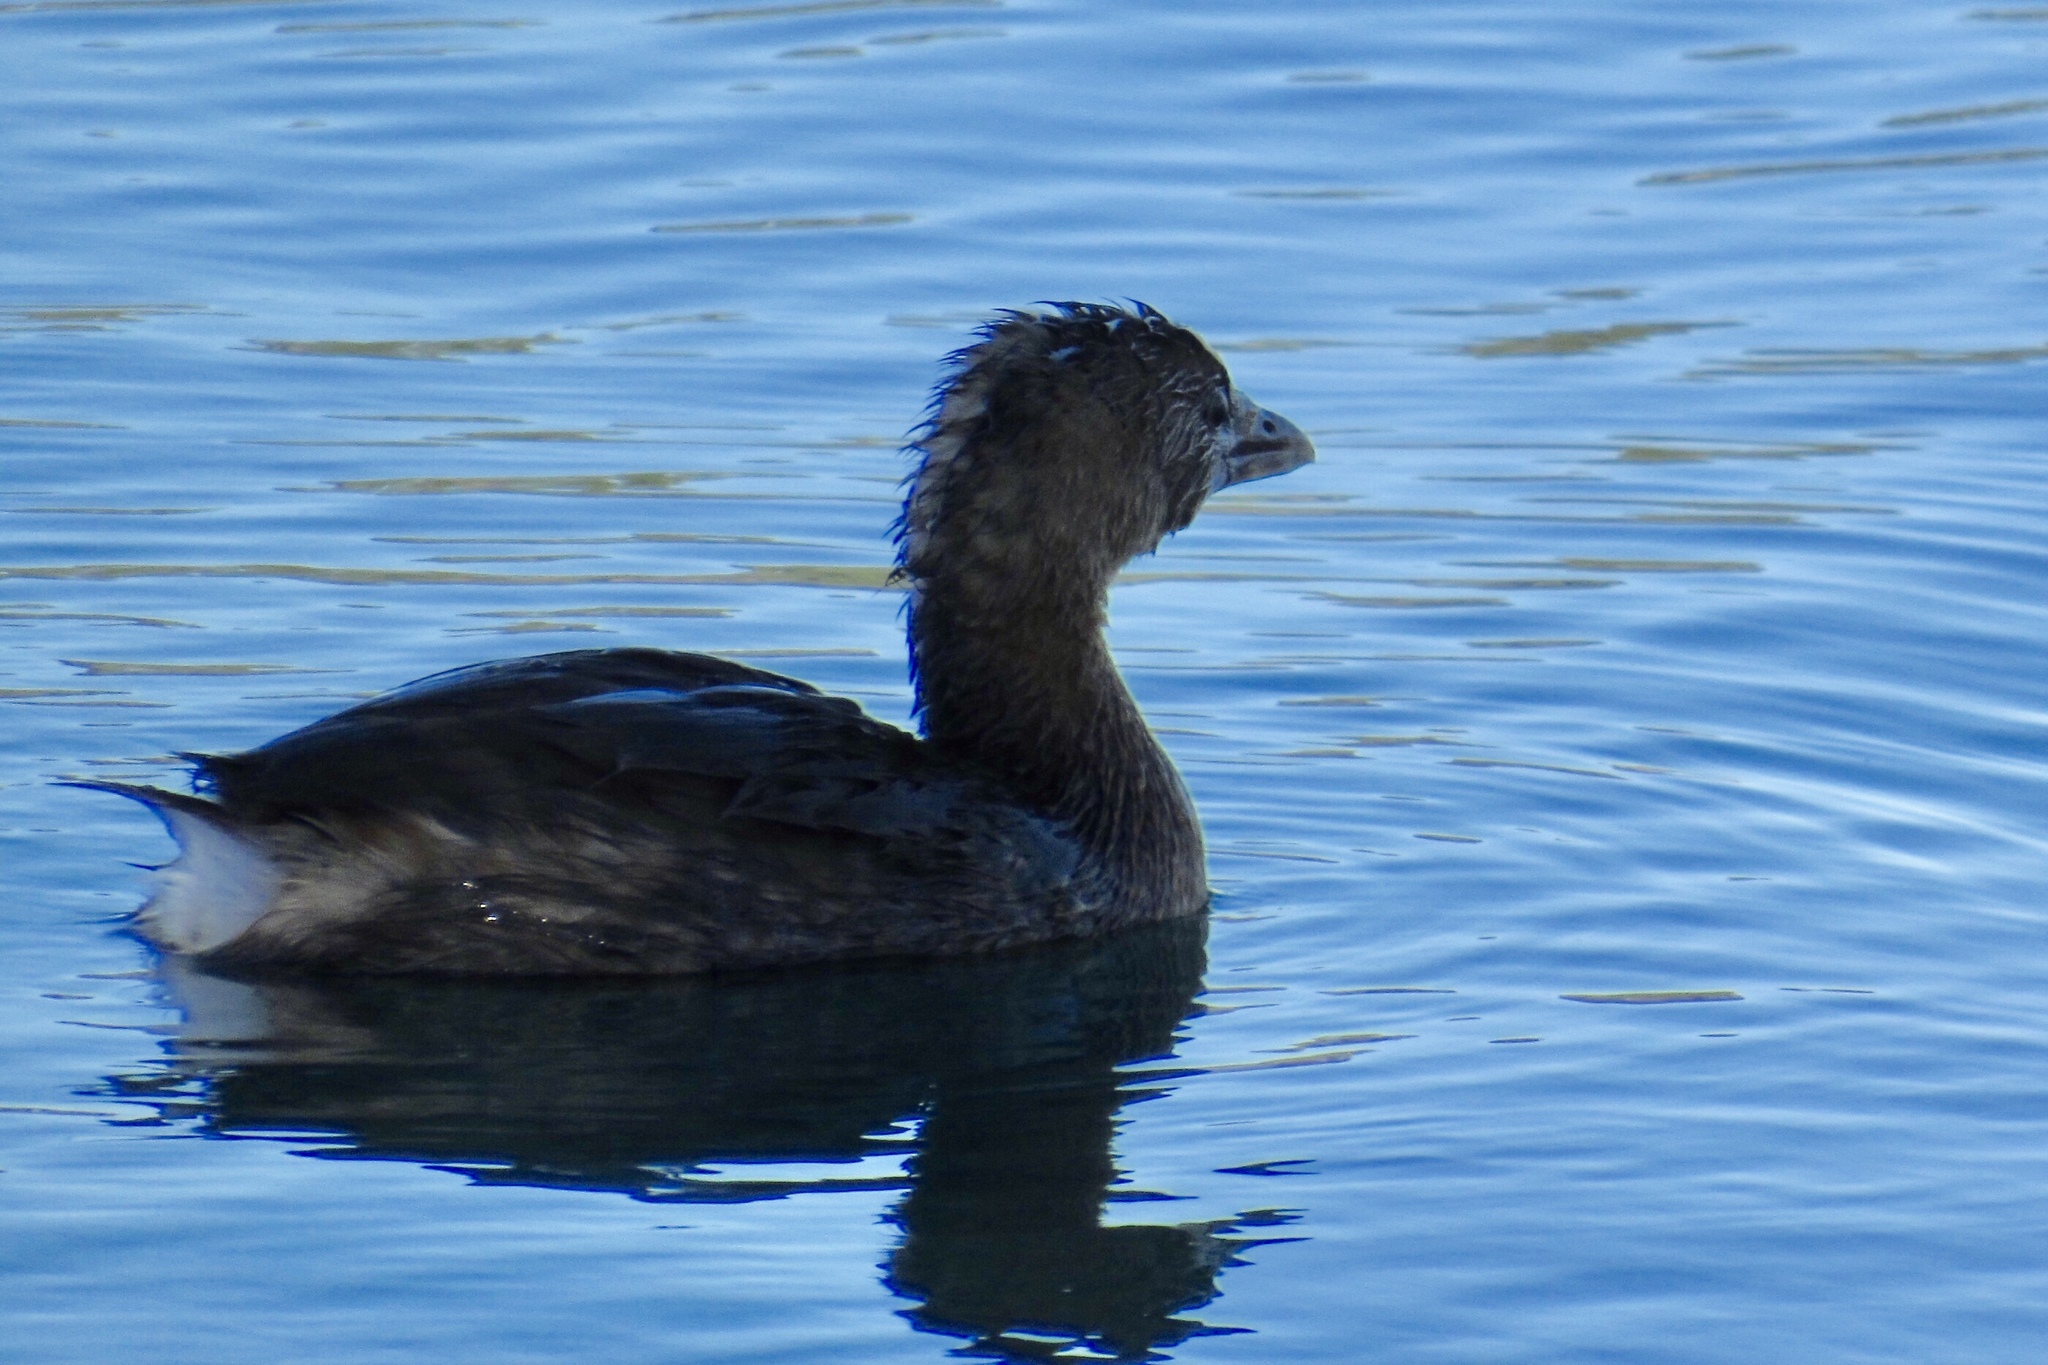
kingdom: Animalia
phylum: Chordata
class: Aves
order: Podicipediformes
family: Podicipedidae
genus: Podilymbus
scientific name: Podilymbus podiceps
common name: Pied-billed grebe
